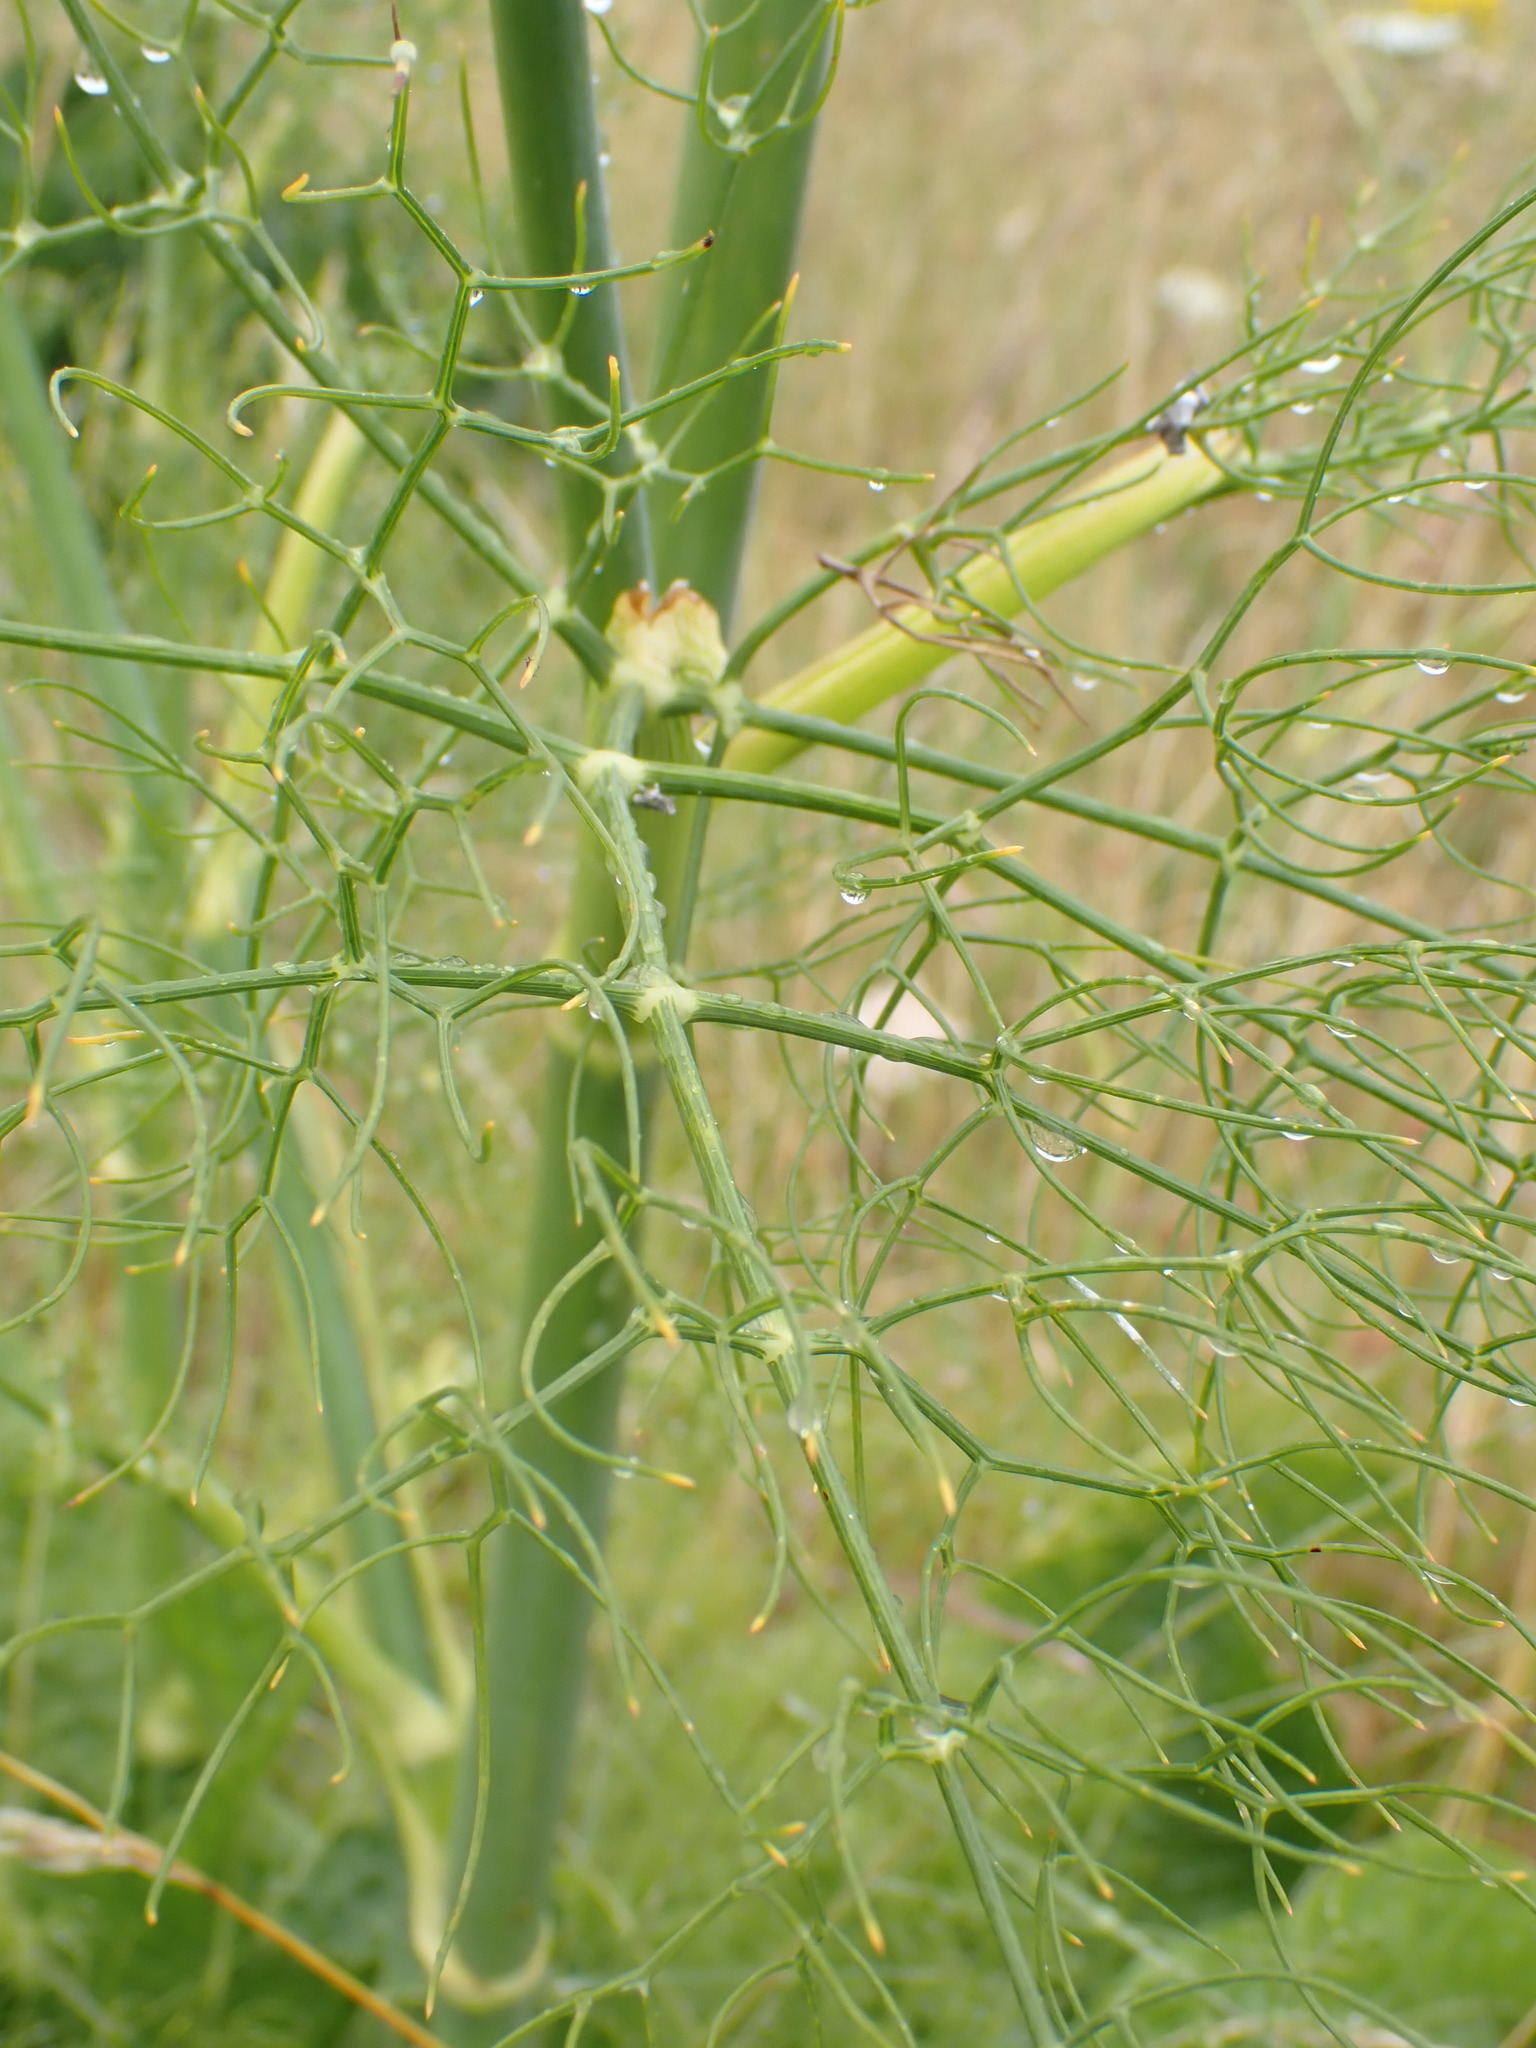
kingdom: Plantae
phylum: Tracheophyta
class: Magnoliopsida
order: Apiales
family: Apiaceae
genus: Foeniculum
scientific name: Foeniculum vulgare
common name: Fennel
